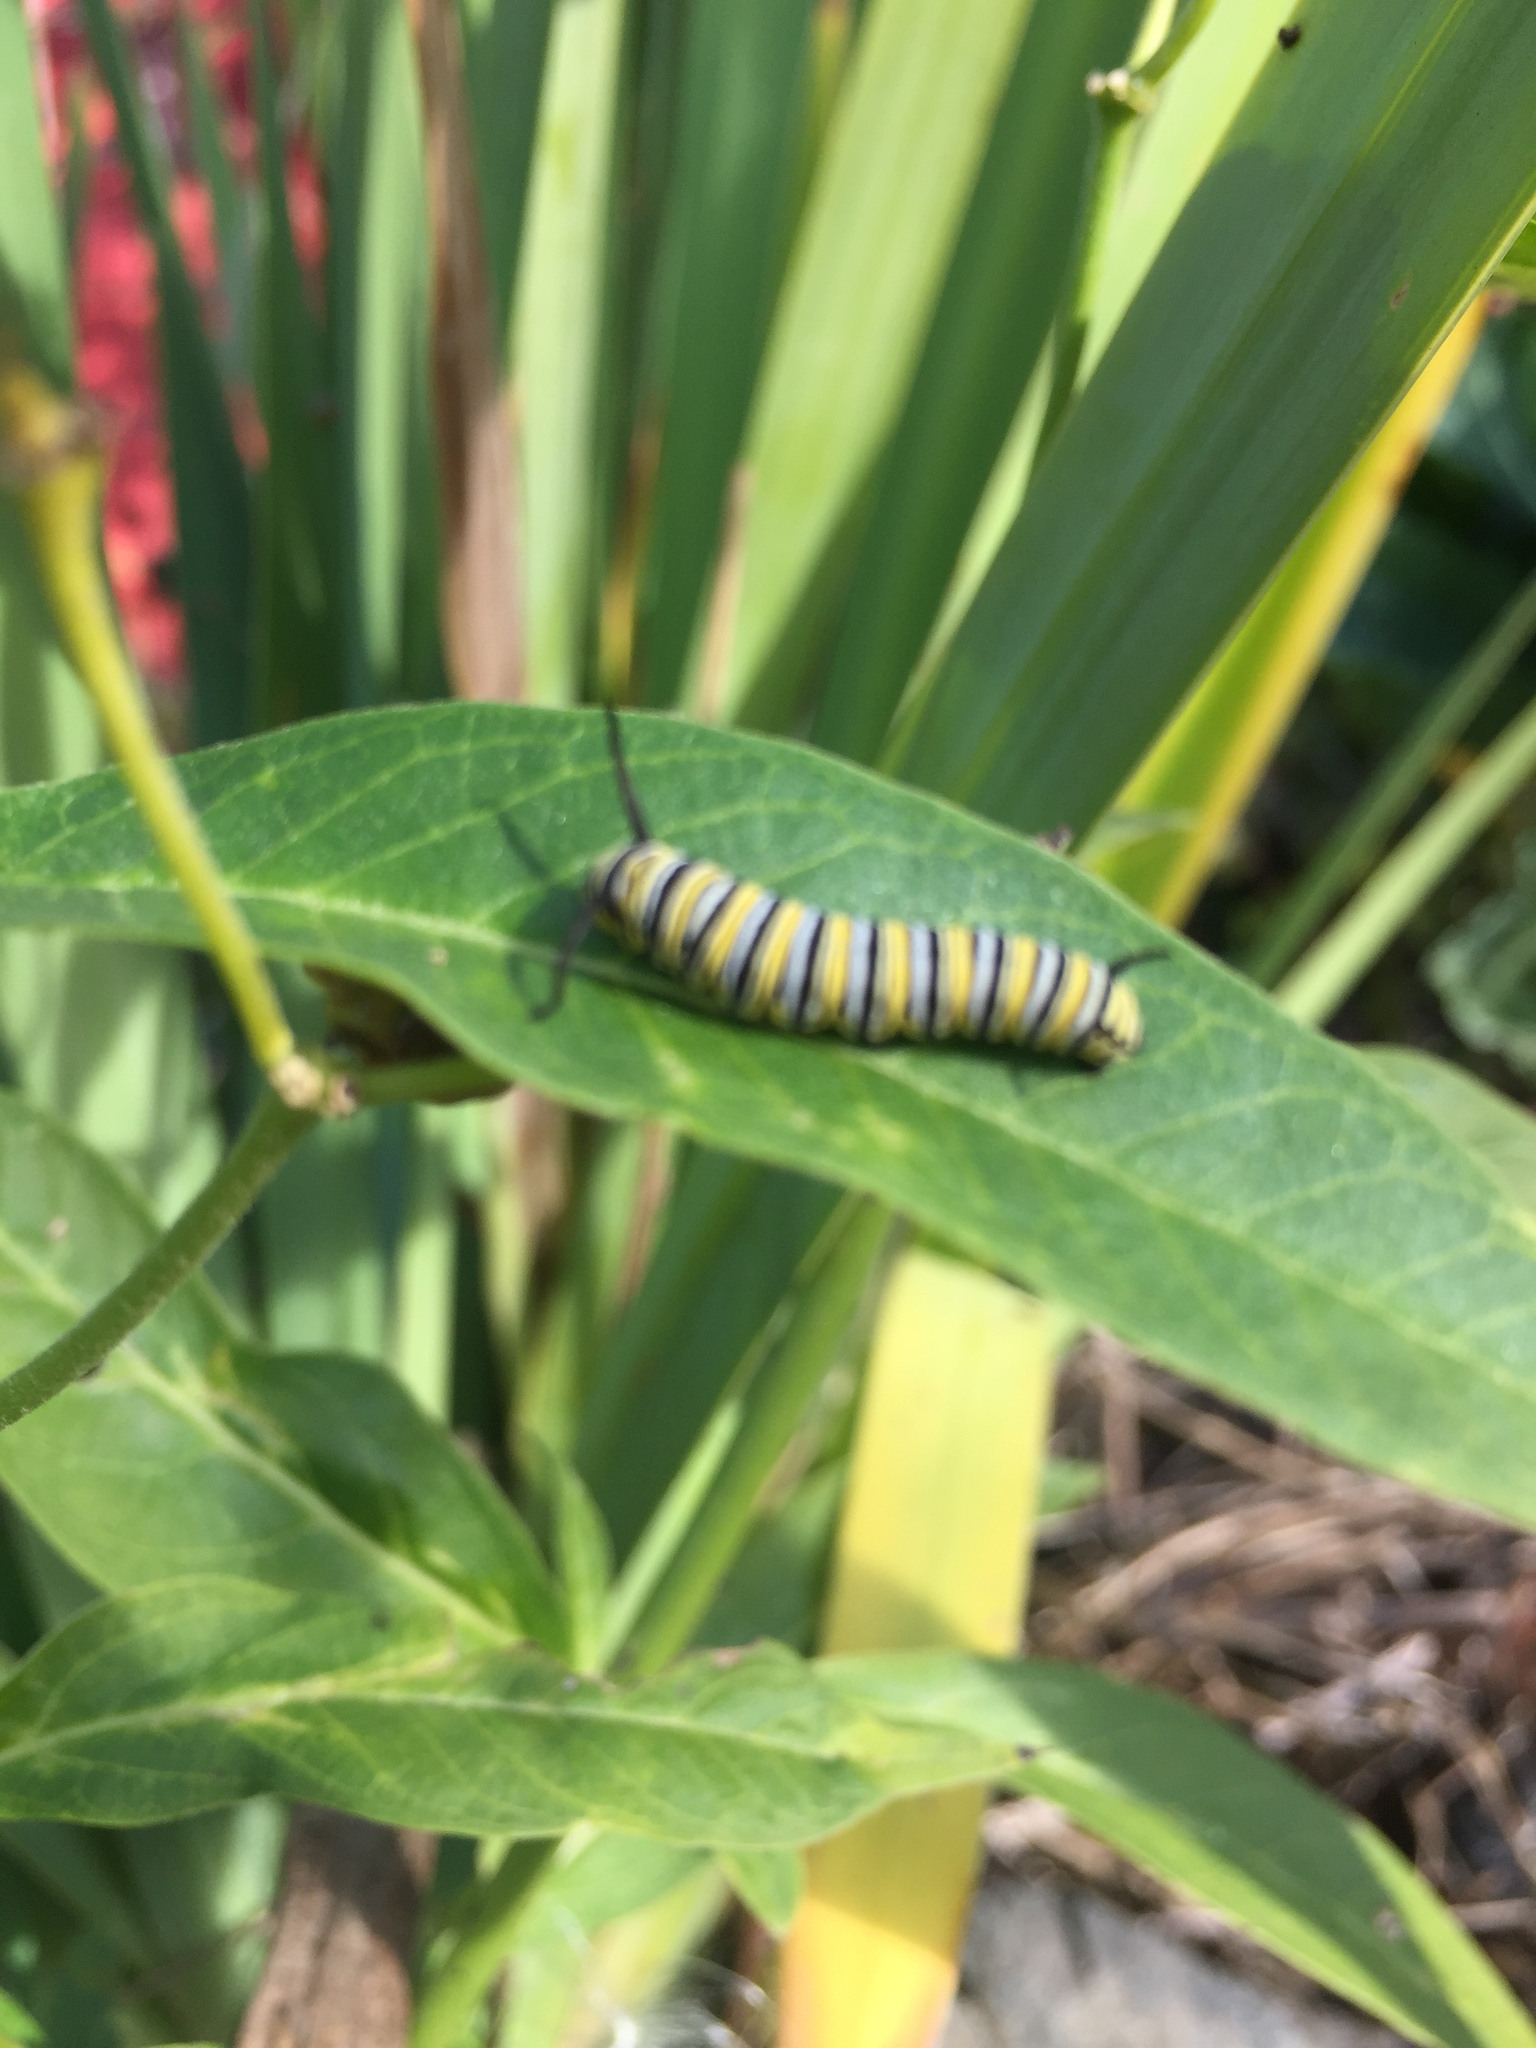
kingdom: Animalia
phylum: Arthropoda
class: Insecta
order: Lepidoptera
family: Nymphalidae
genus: Danaus
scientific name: Danaus plexippus
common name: Monarch
